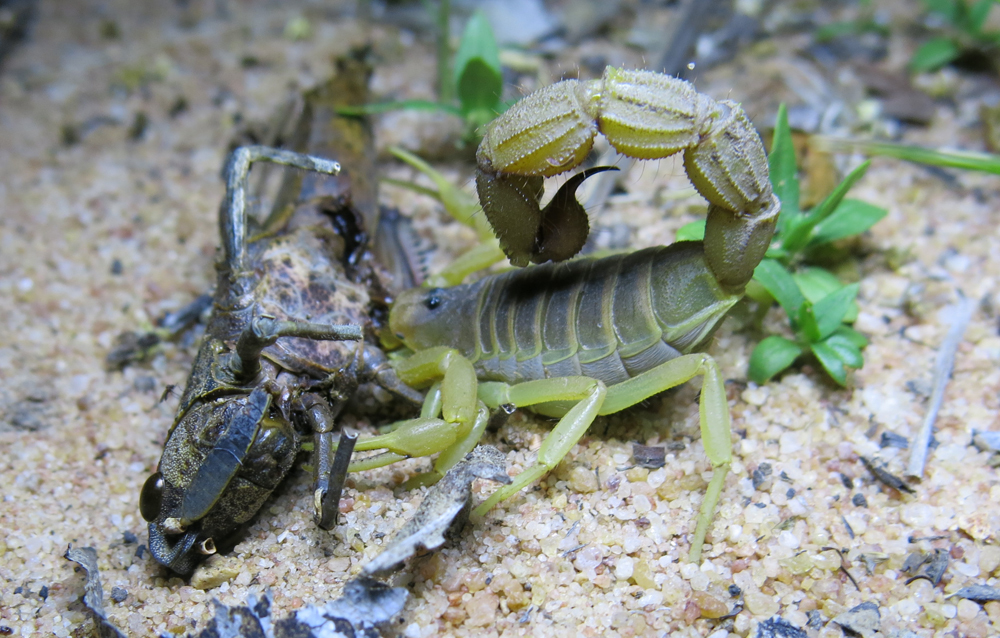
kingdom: Animalia
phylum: Arthropoda
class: Arachnida
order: Scorpiones
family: Buthidae
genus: Parabuthus
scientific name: Parabuthus mossambicensis
